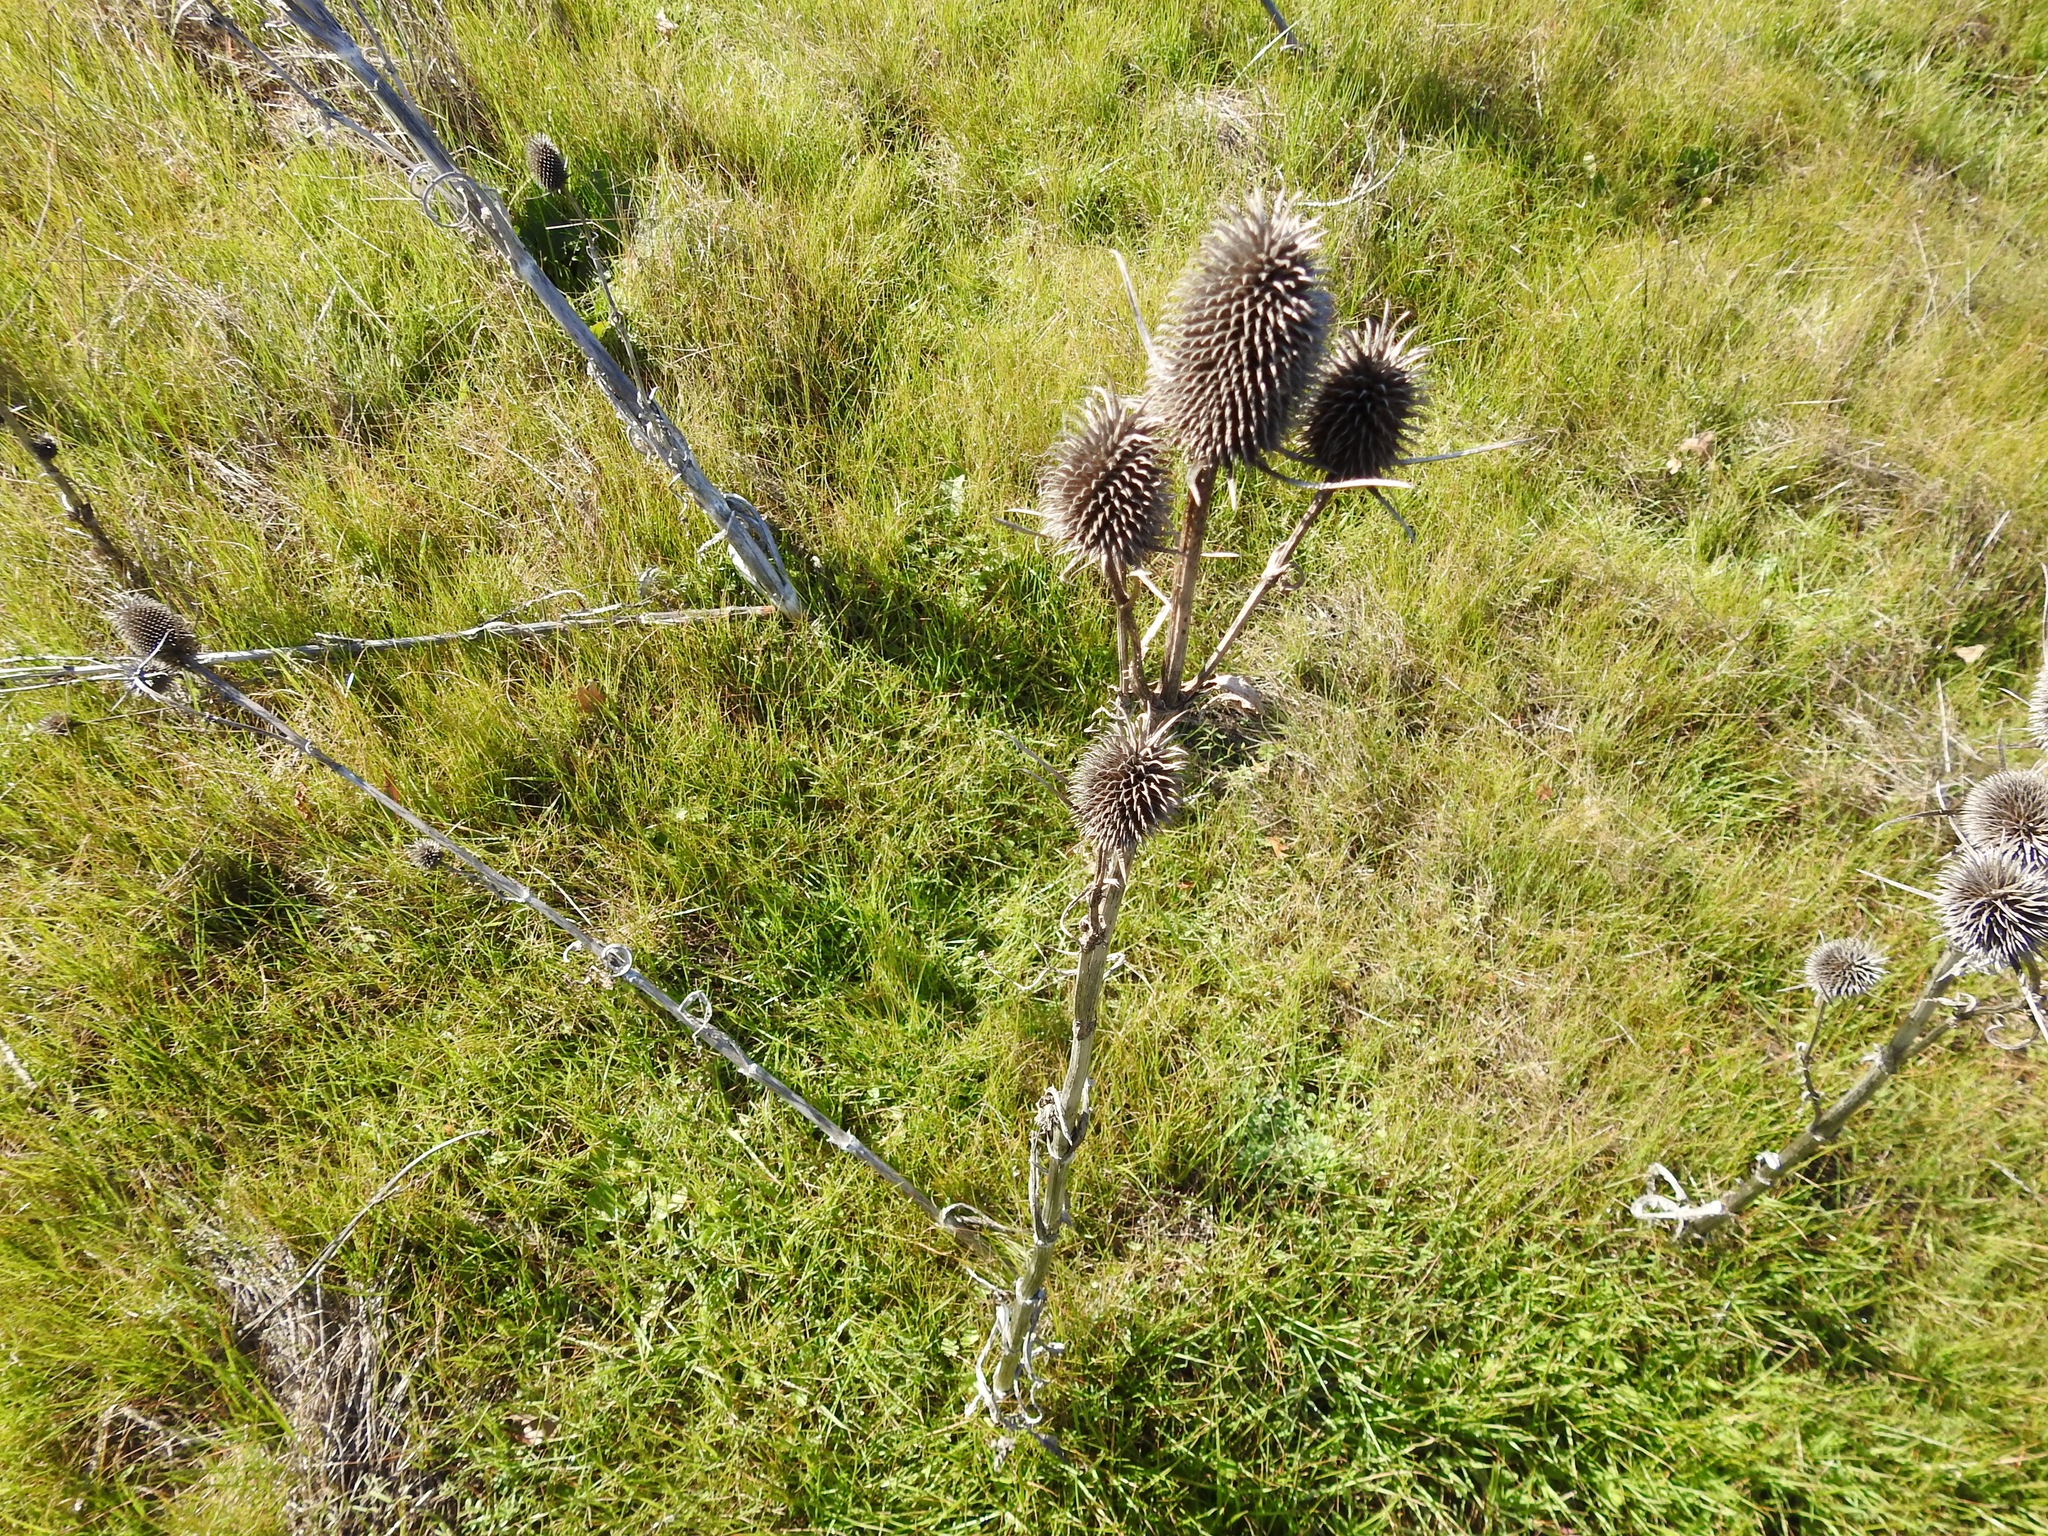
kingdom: Plantae
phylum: Tracheophyta
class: Magnoliopsida
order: Dipsacales
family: Caprifoliaceae
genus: Dipsacus
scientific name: Dipsacus sativus
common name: Fuller's teasel
